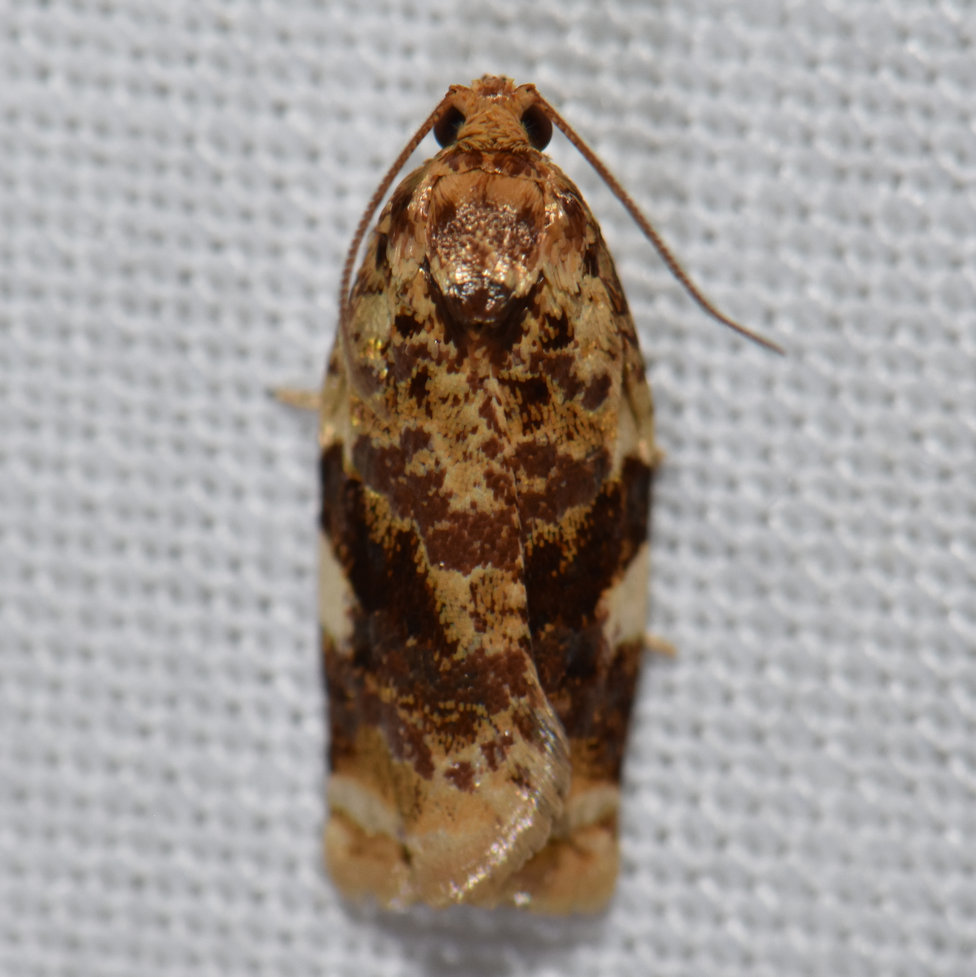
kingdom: Animalia
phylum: Arthropoda
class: Insecta
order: Lepidoptera
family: Tortricidae
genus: Archips
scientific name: Archips argyrospila
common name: Fruit-tree leafroller moth
